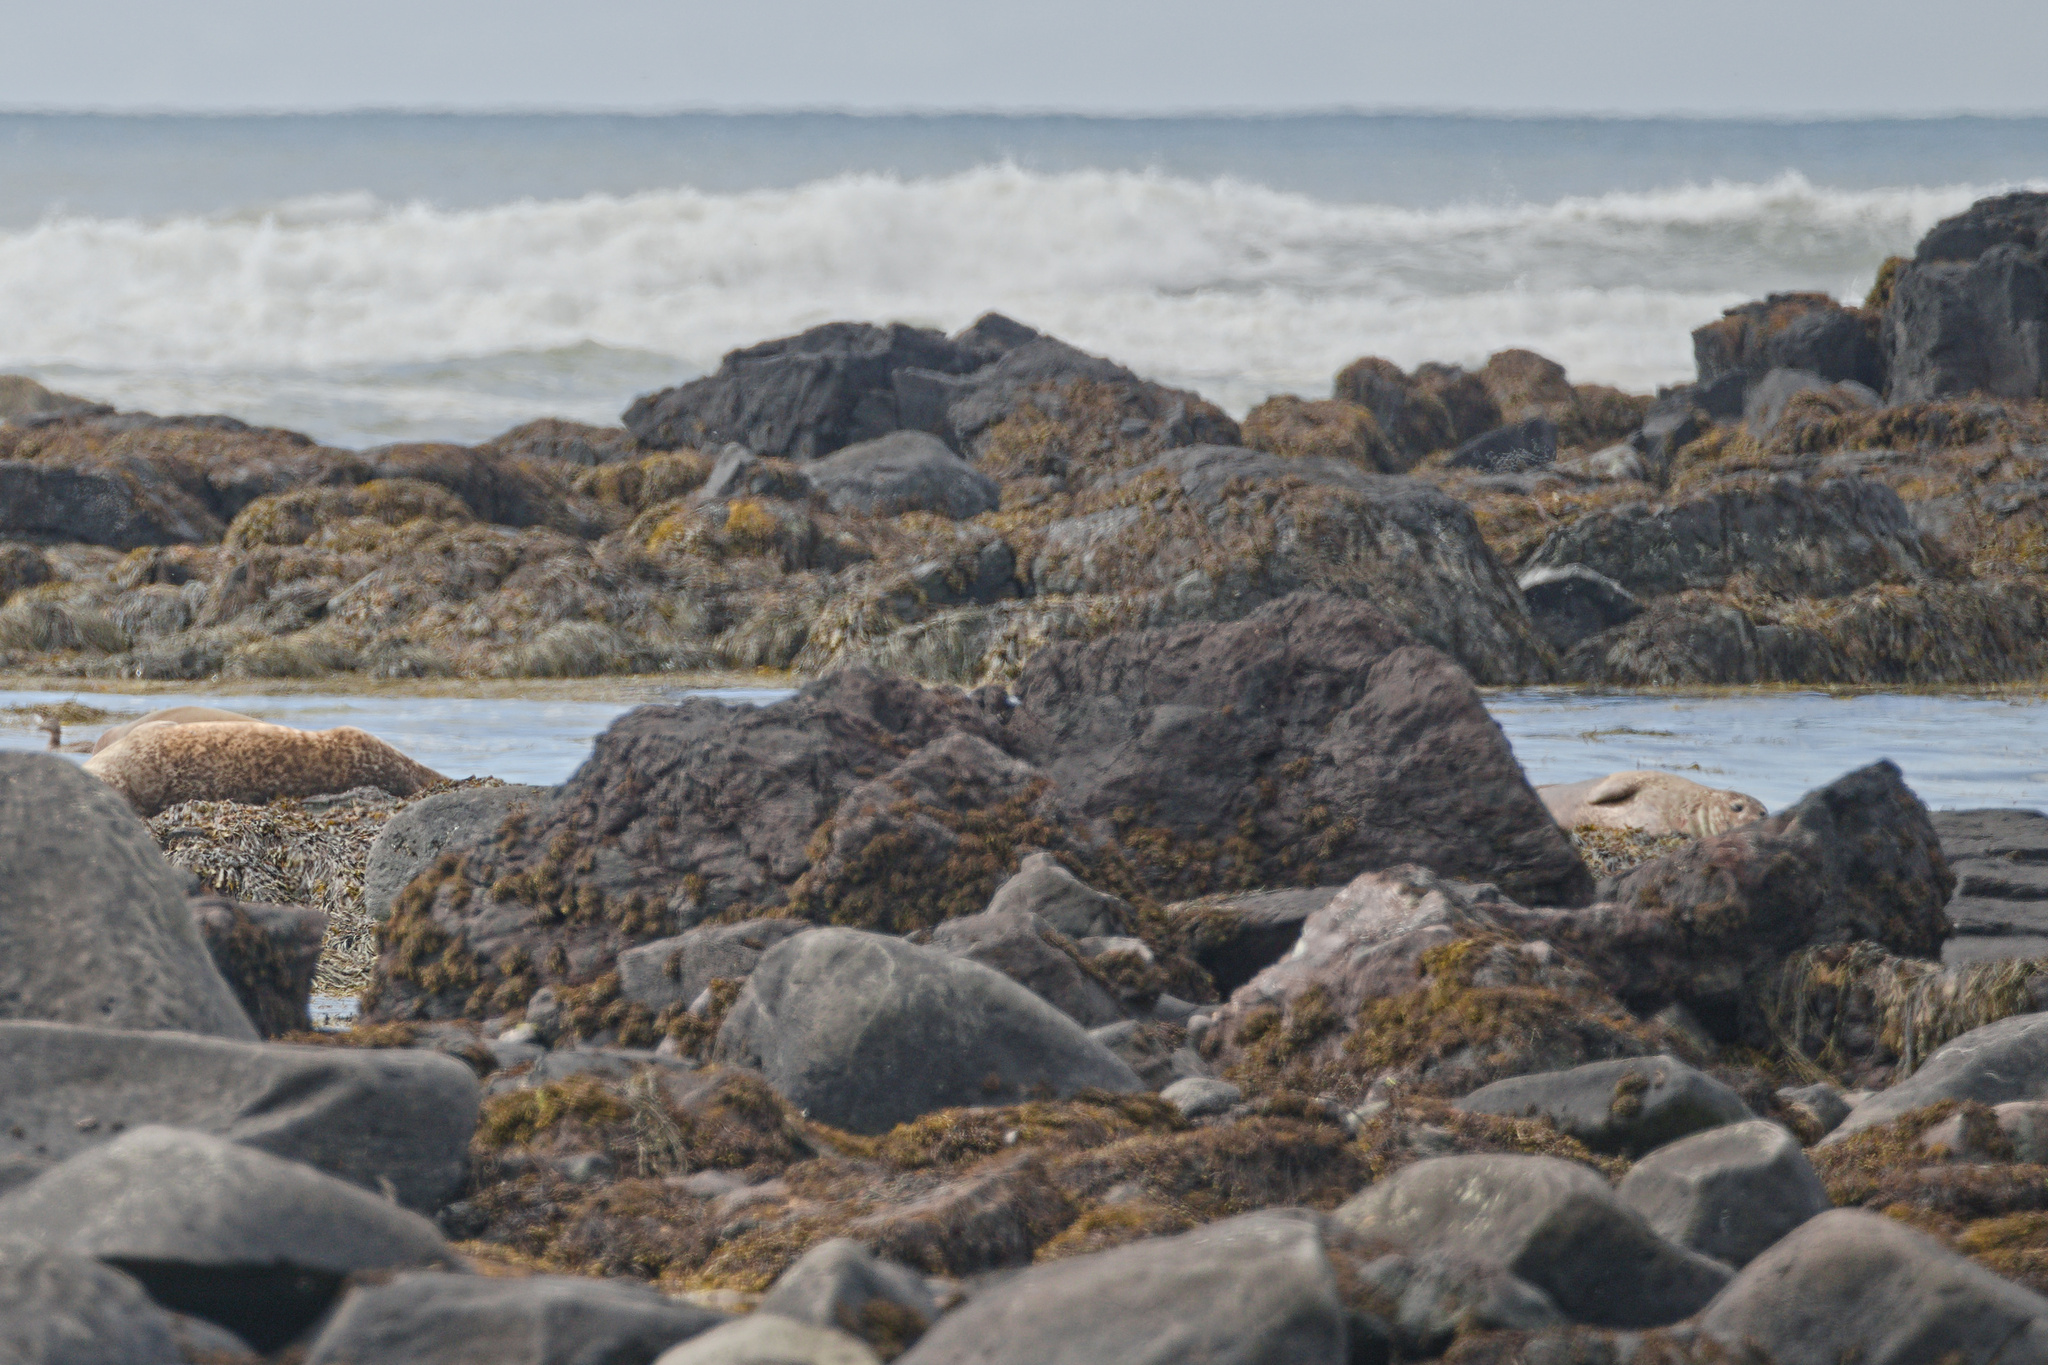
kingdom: Animalia
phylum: Chordata
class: Mammalia
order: Carnivora
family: Phocidae
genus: Phoca
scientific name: Phoca vitulina
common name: Harbor seal
